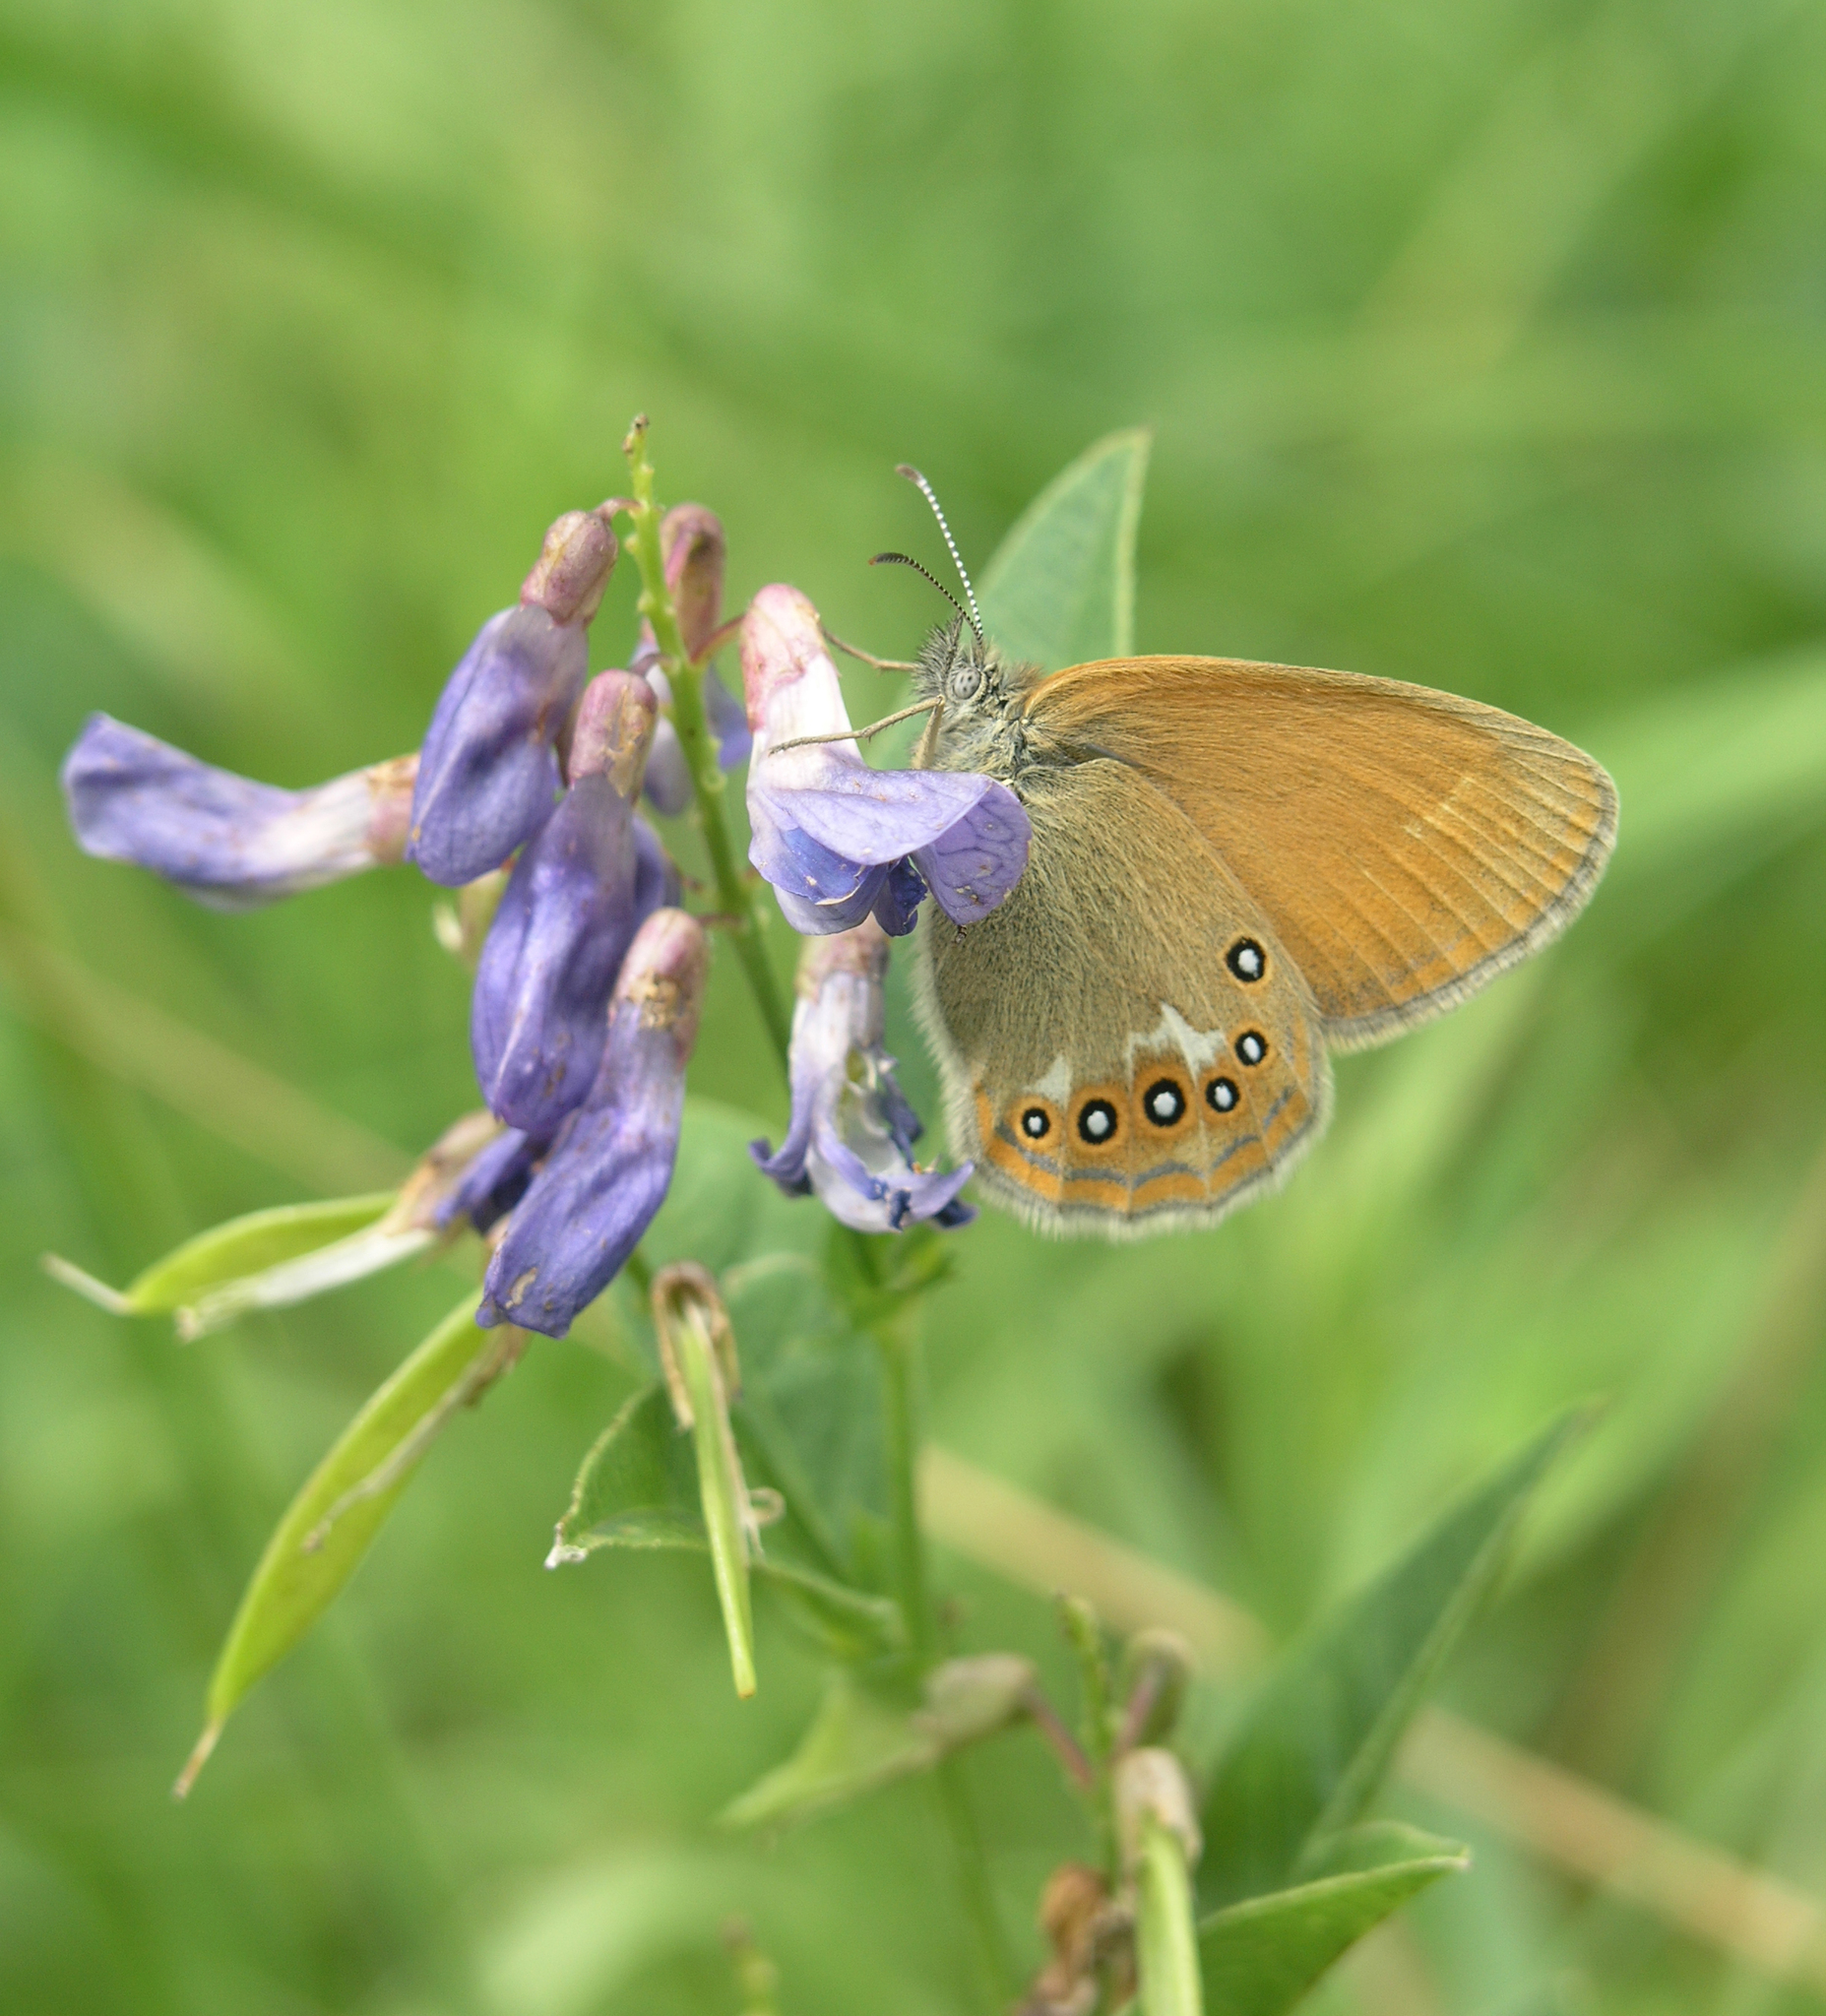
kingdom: Animalia
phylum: Arthropoda
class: Insecta
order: Lepidoptera
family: Nymphalidae
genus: Coenonympha
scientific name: Coenonympha iphis
